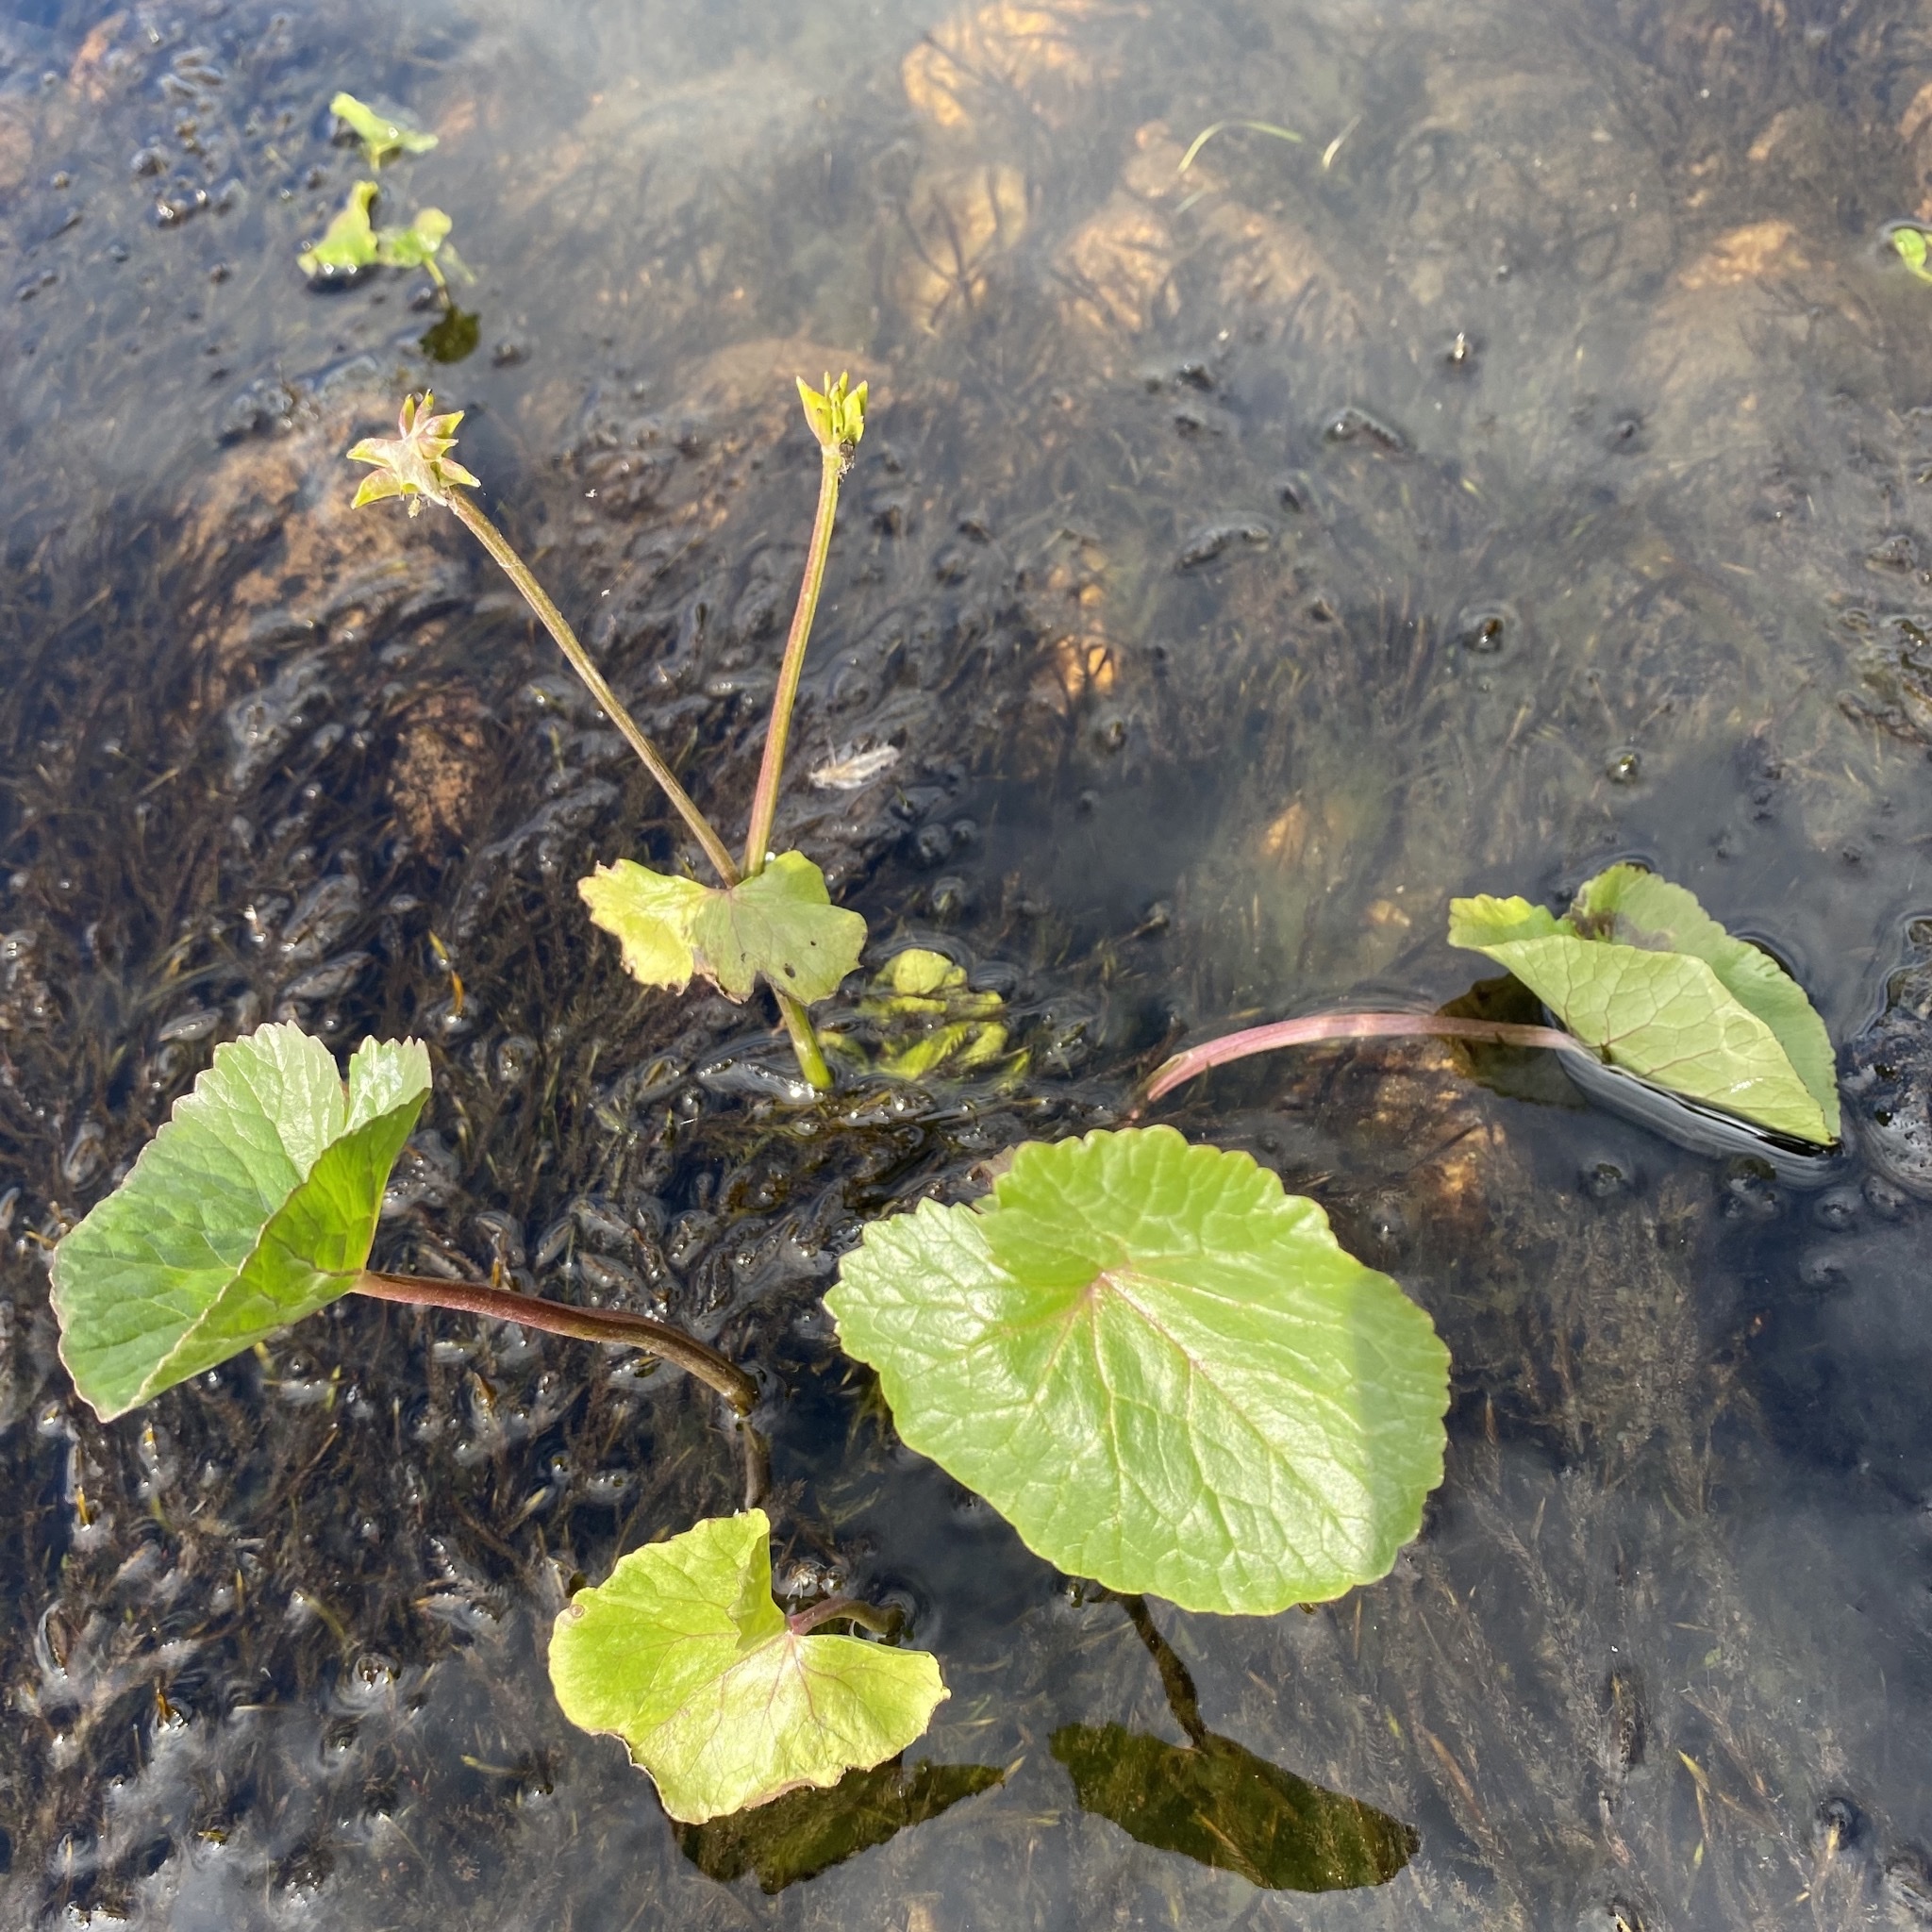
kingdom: Plantae
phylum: Tracheophyta
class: Magnoliopsida
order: Ranunculales
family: Ranunculaceae
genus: Caltha
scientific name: Caltha palustris
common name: Marsh marigold
